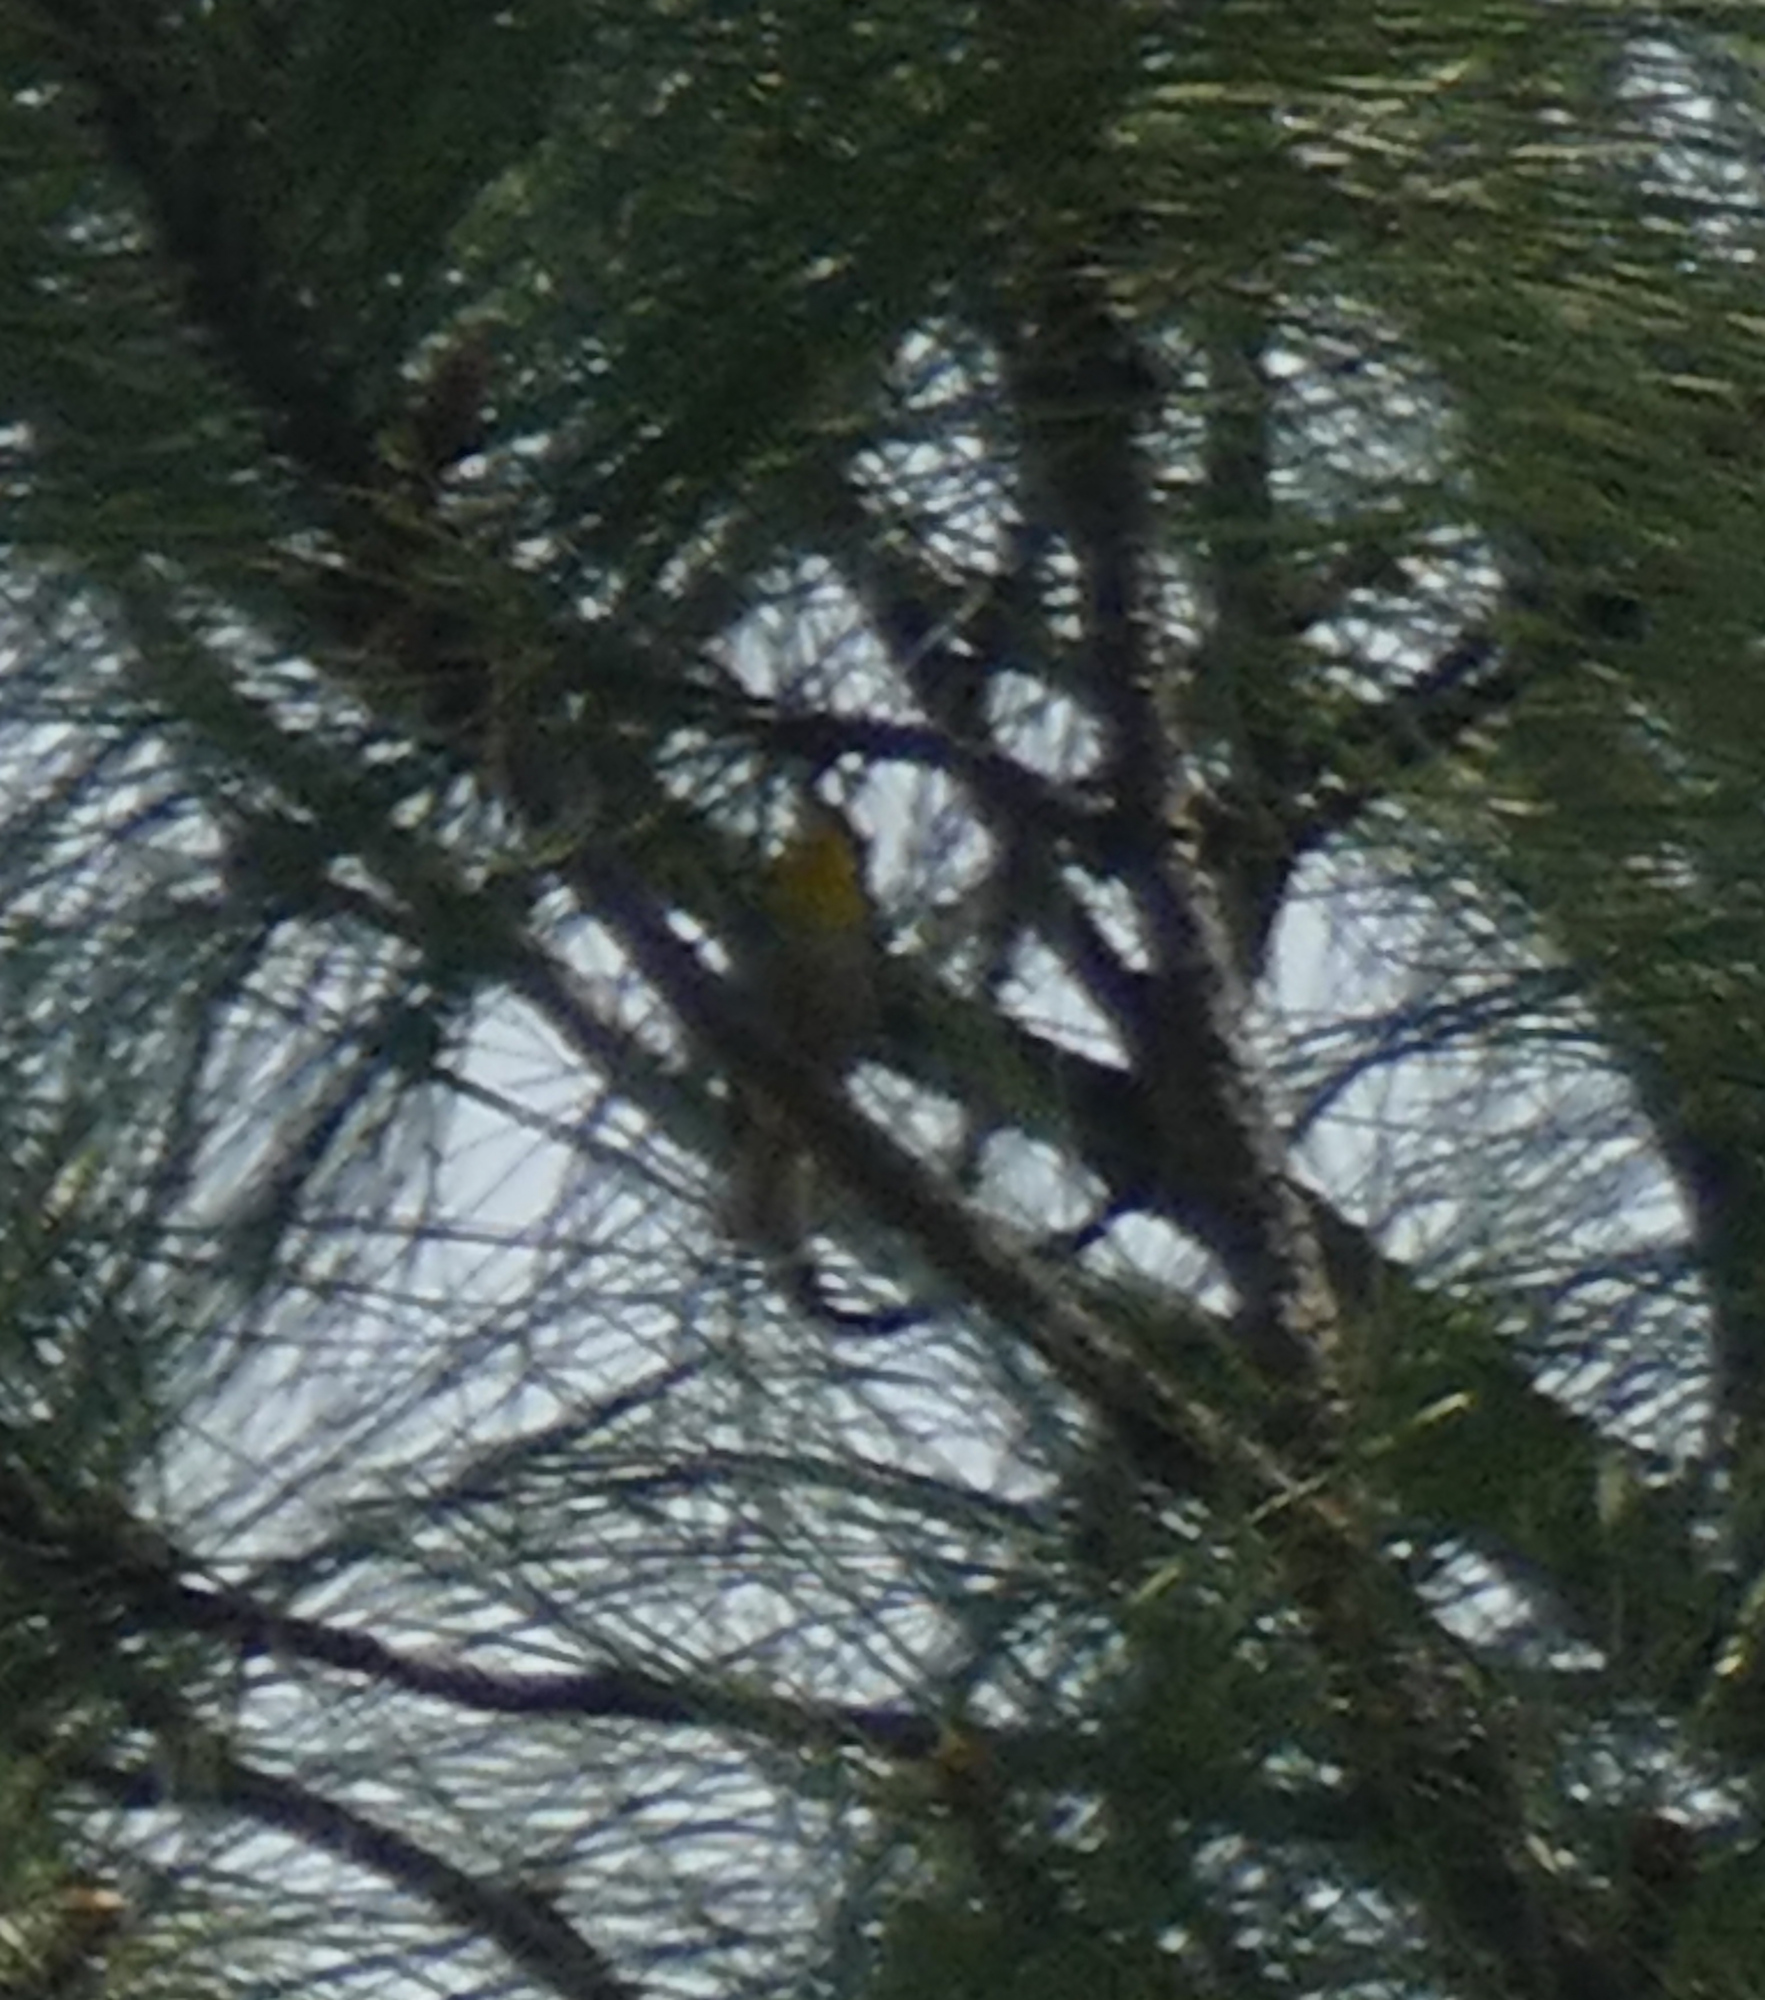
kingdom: Animalia
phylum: Chordata
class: Aves
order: Passeriformes
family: Parulidae
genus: Setophaga
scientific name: Setophaga graciae
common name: Grace's warbler
